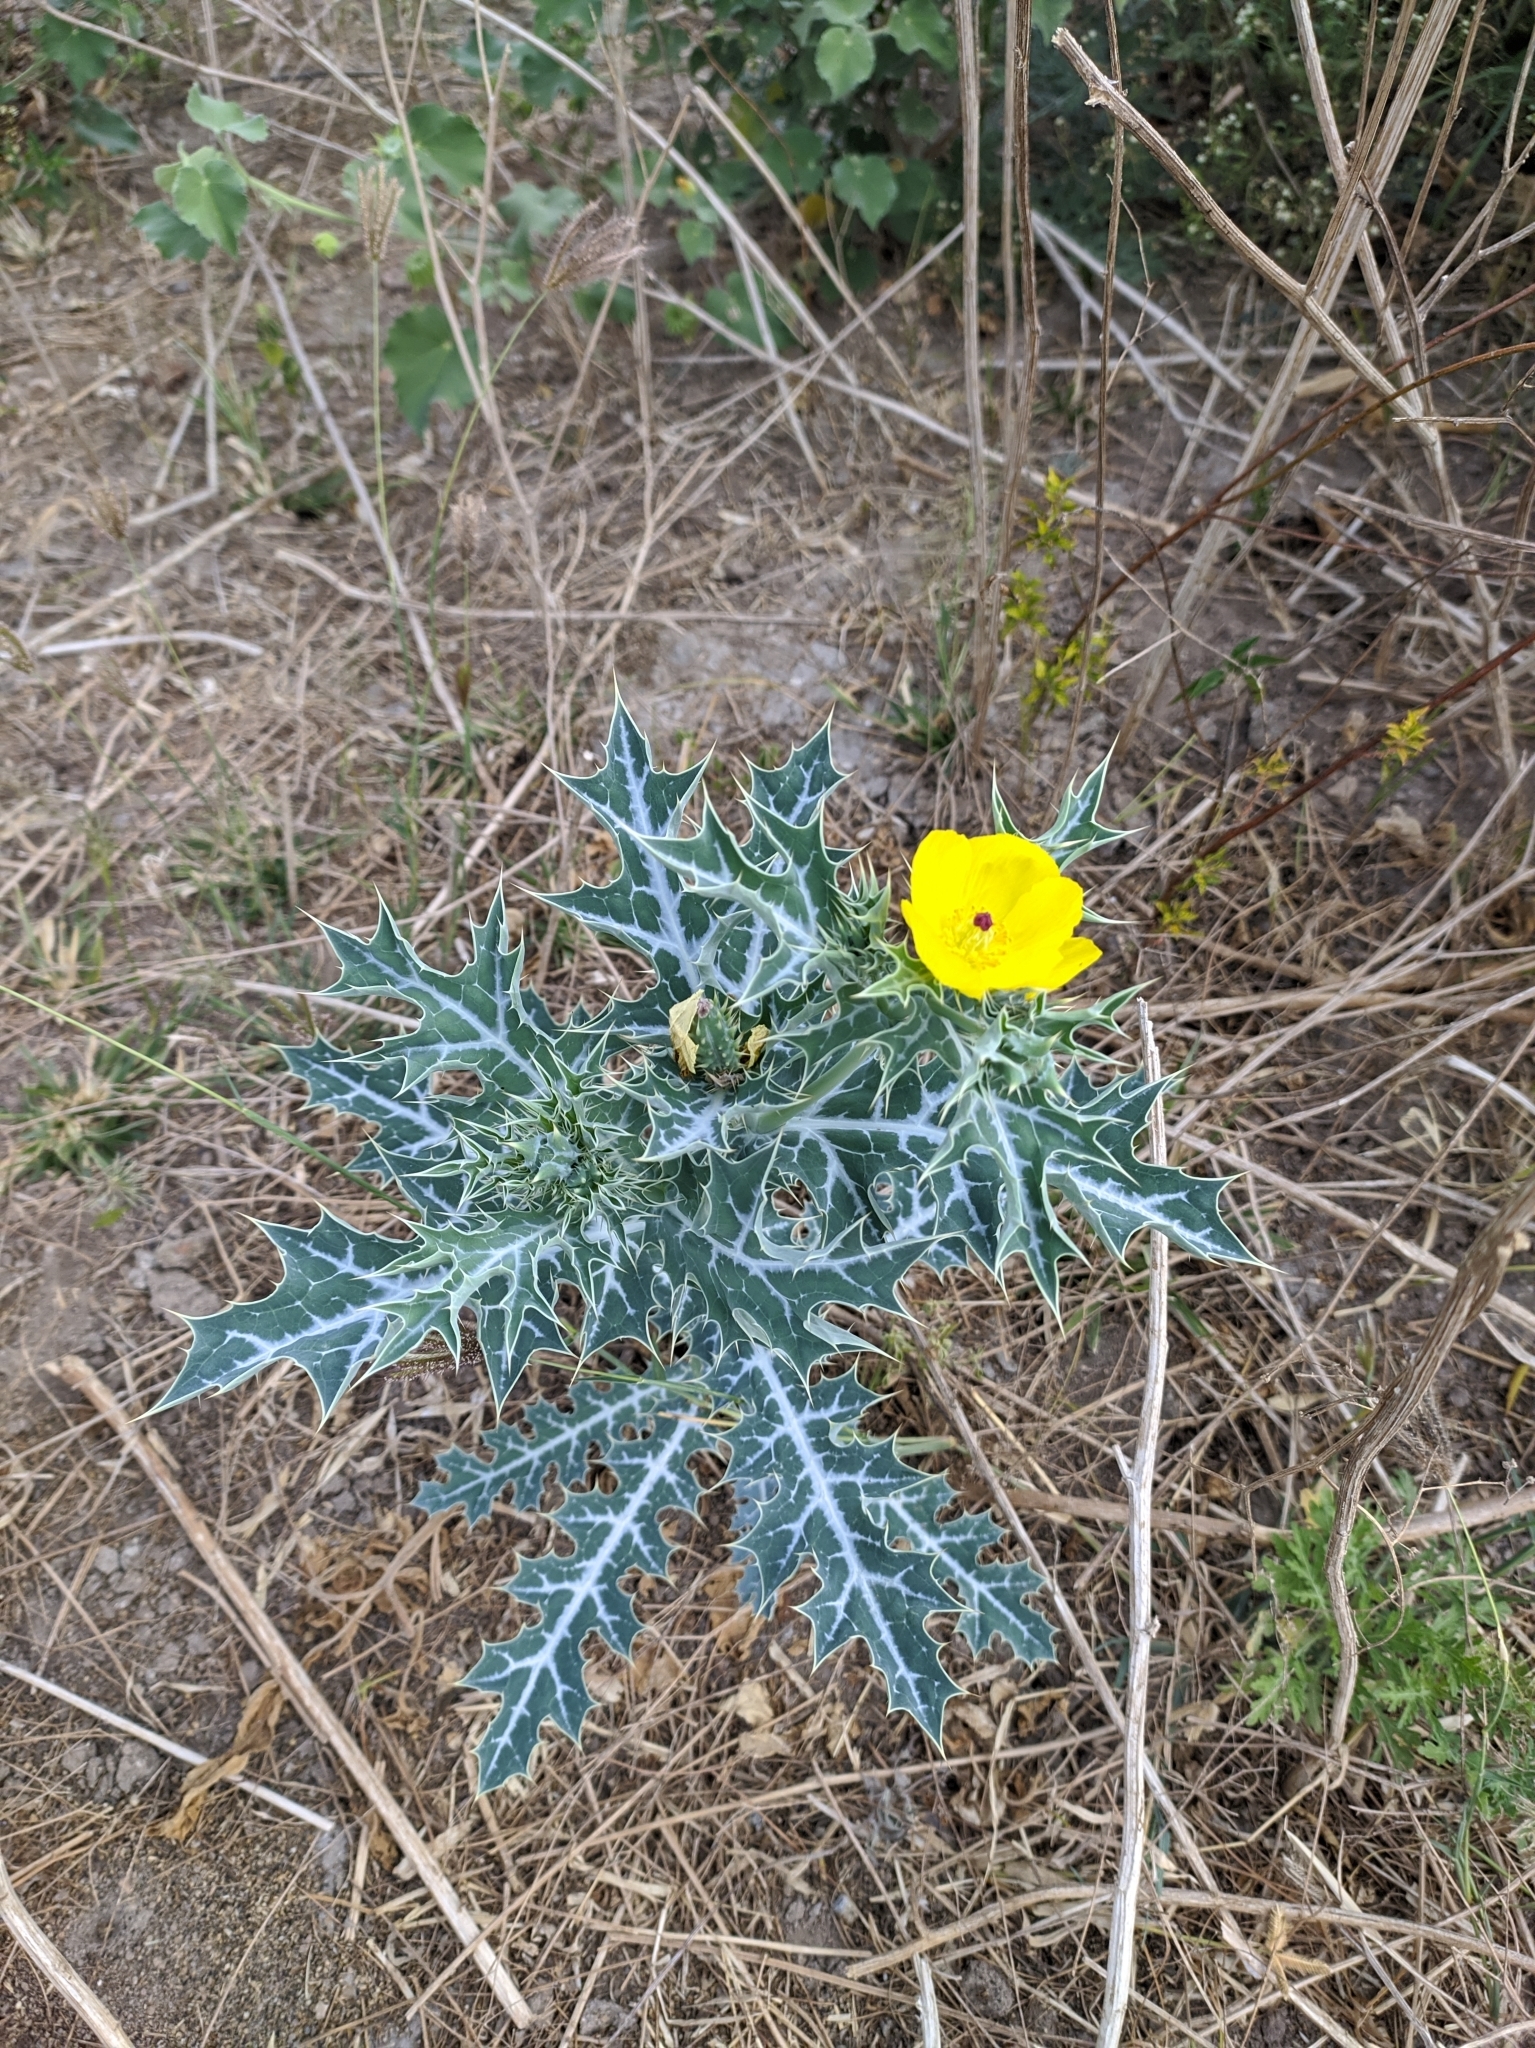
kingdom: Plantae
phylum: Tracheophyta
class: Magnoliopsida
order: Ranunculales
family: Papaveraceae
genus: Argemone
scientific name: Argemone mexicana
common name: Mexican poppy
